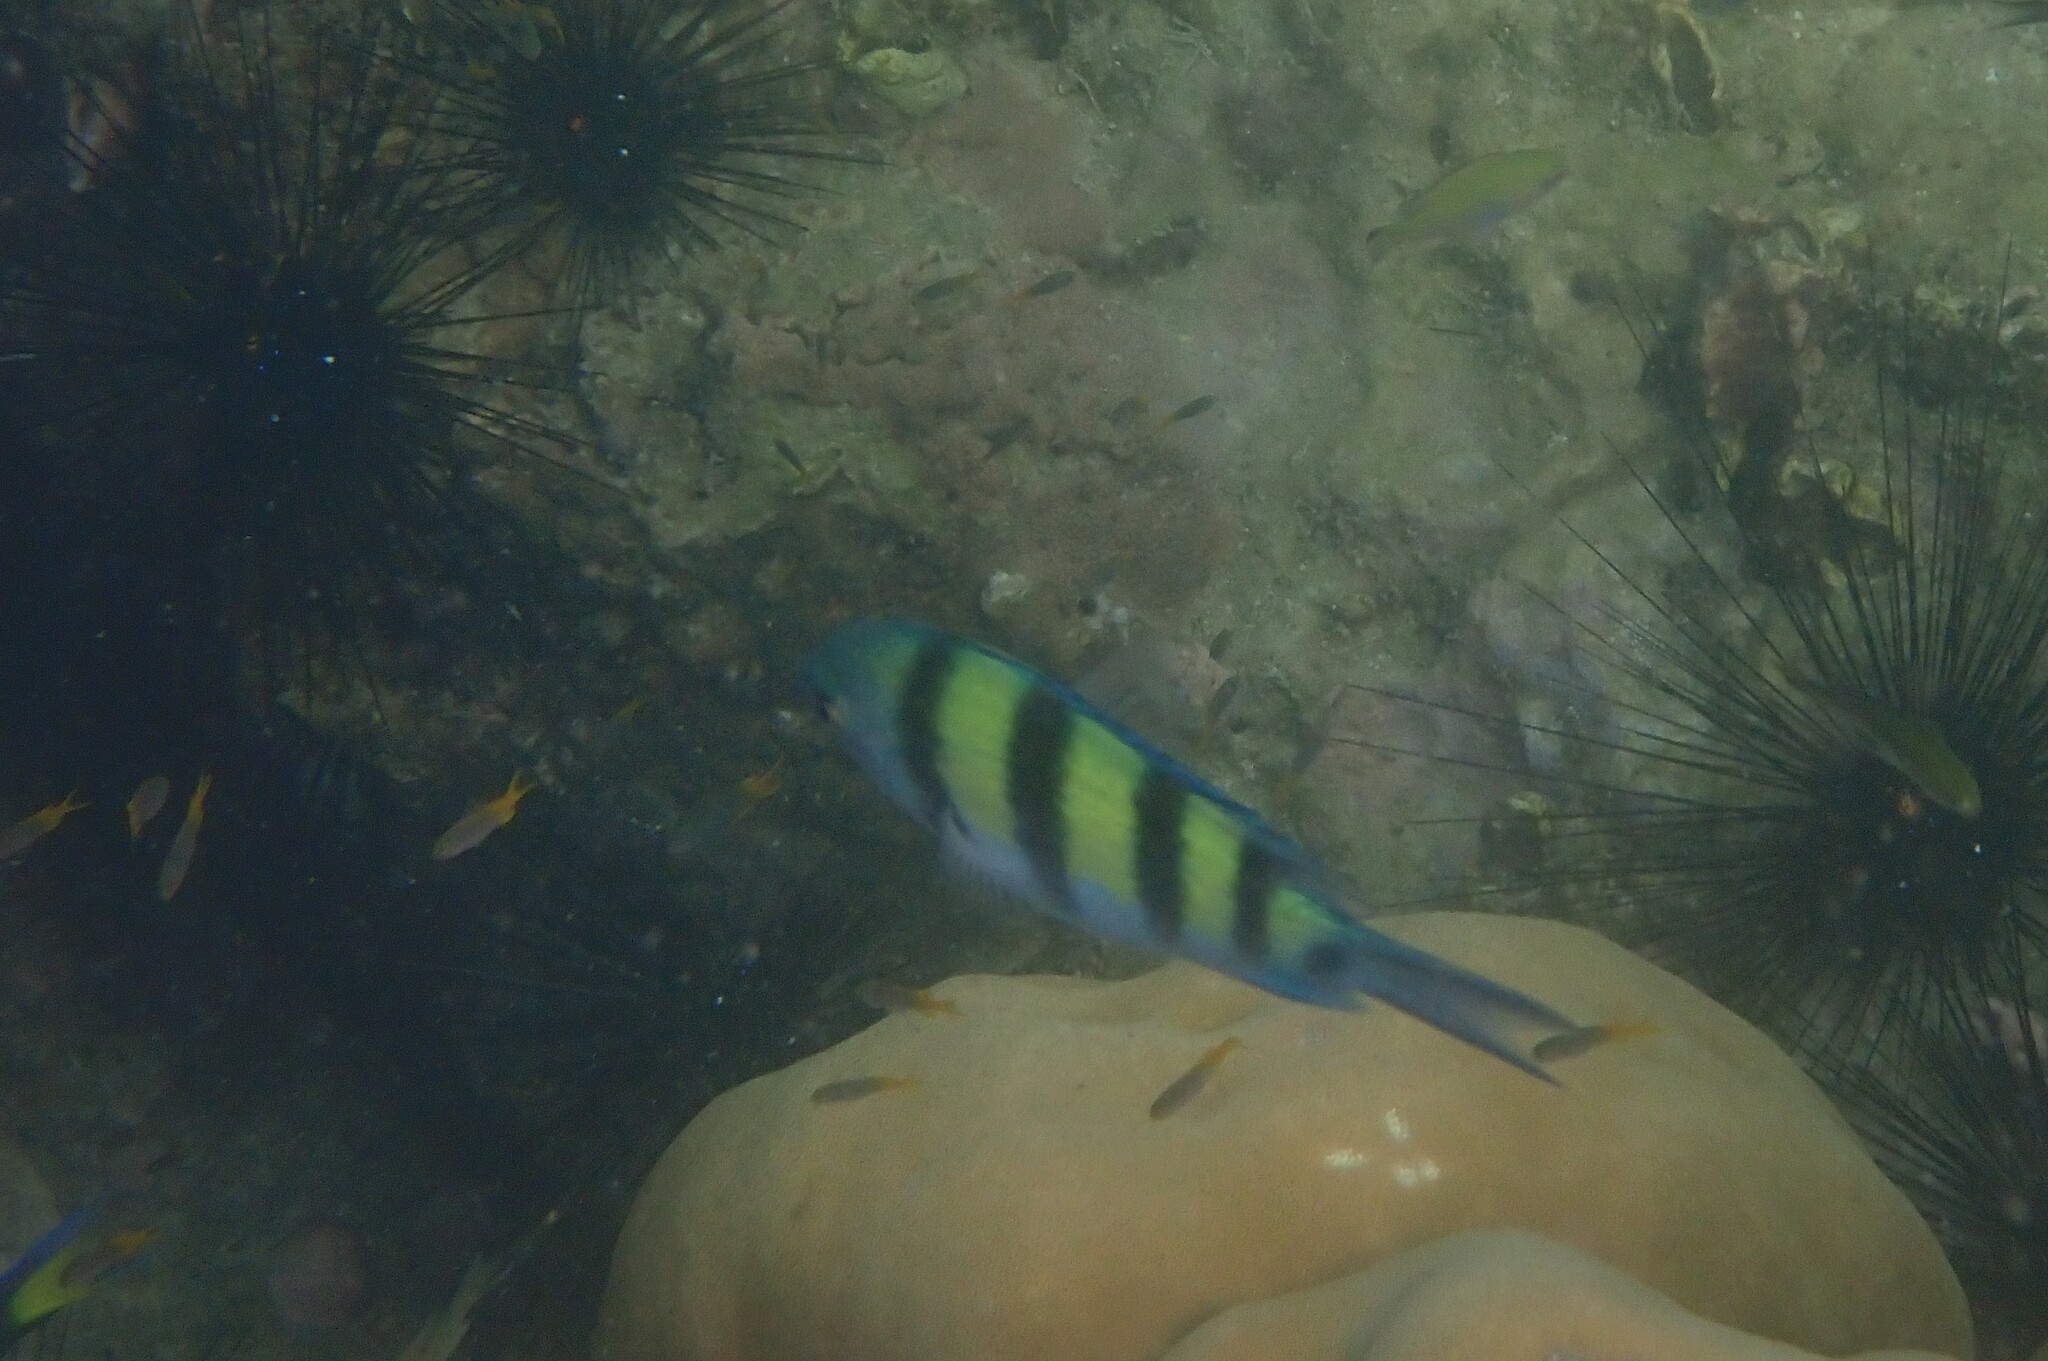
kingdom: Animalia
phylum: Chordata
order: Perciformes
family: Pomacentridae
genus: Abudefduf
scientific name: Abudefduf sexfasciatus
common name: Scissortail sergeant
